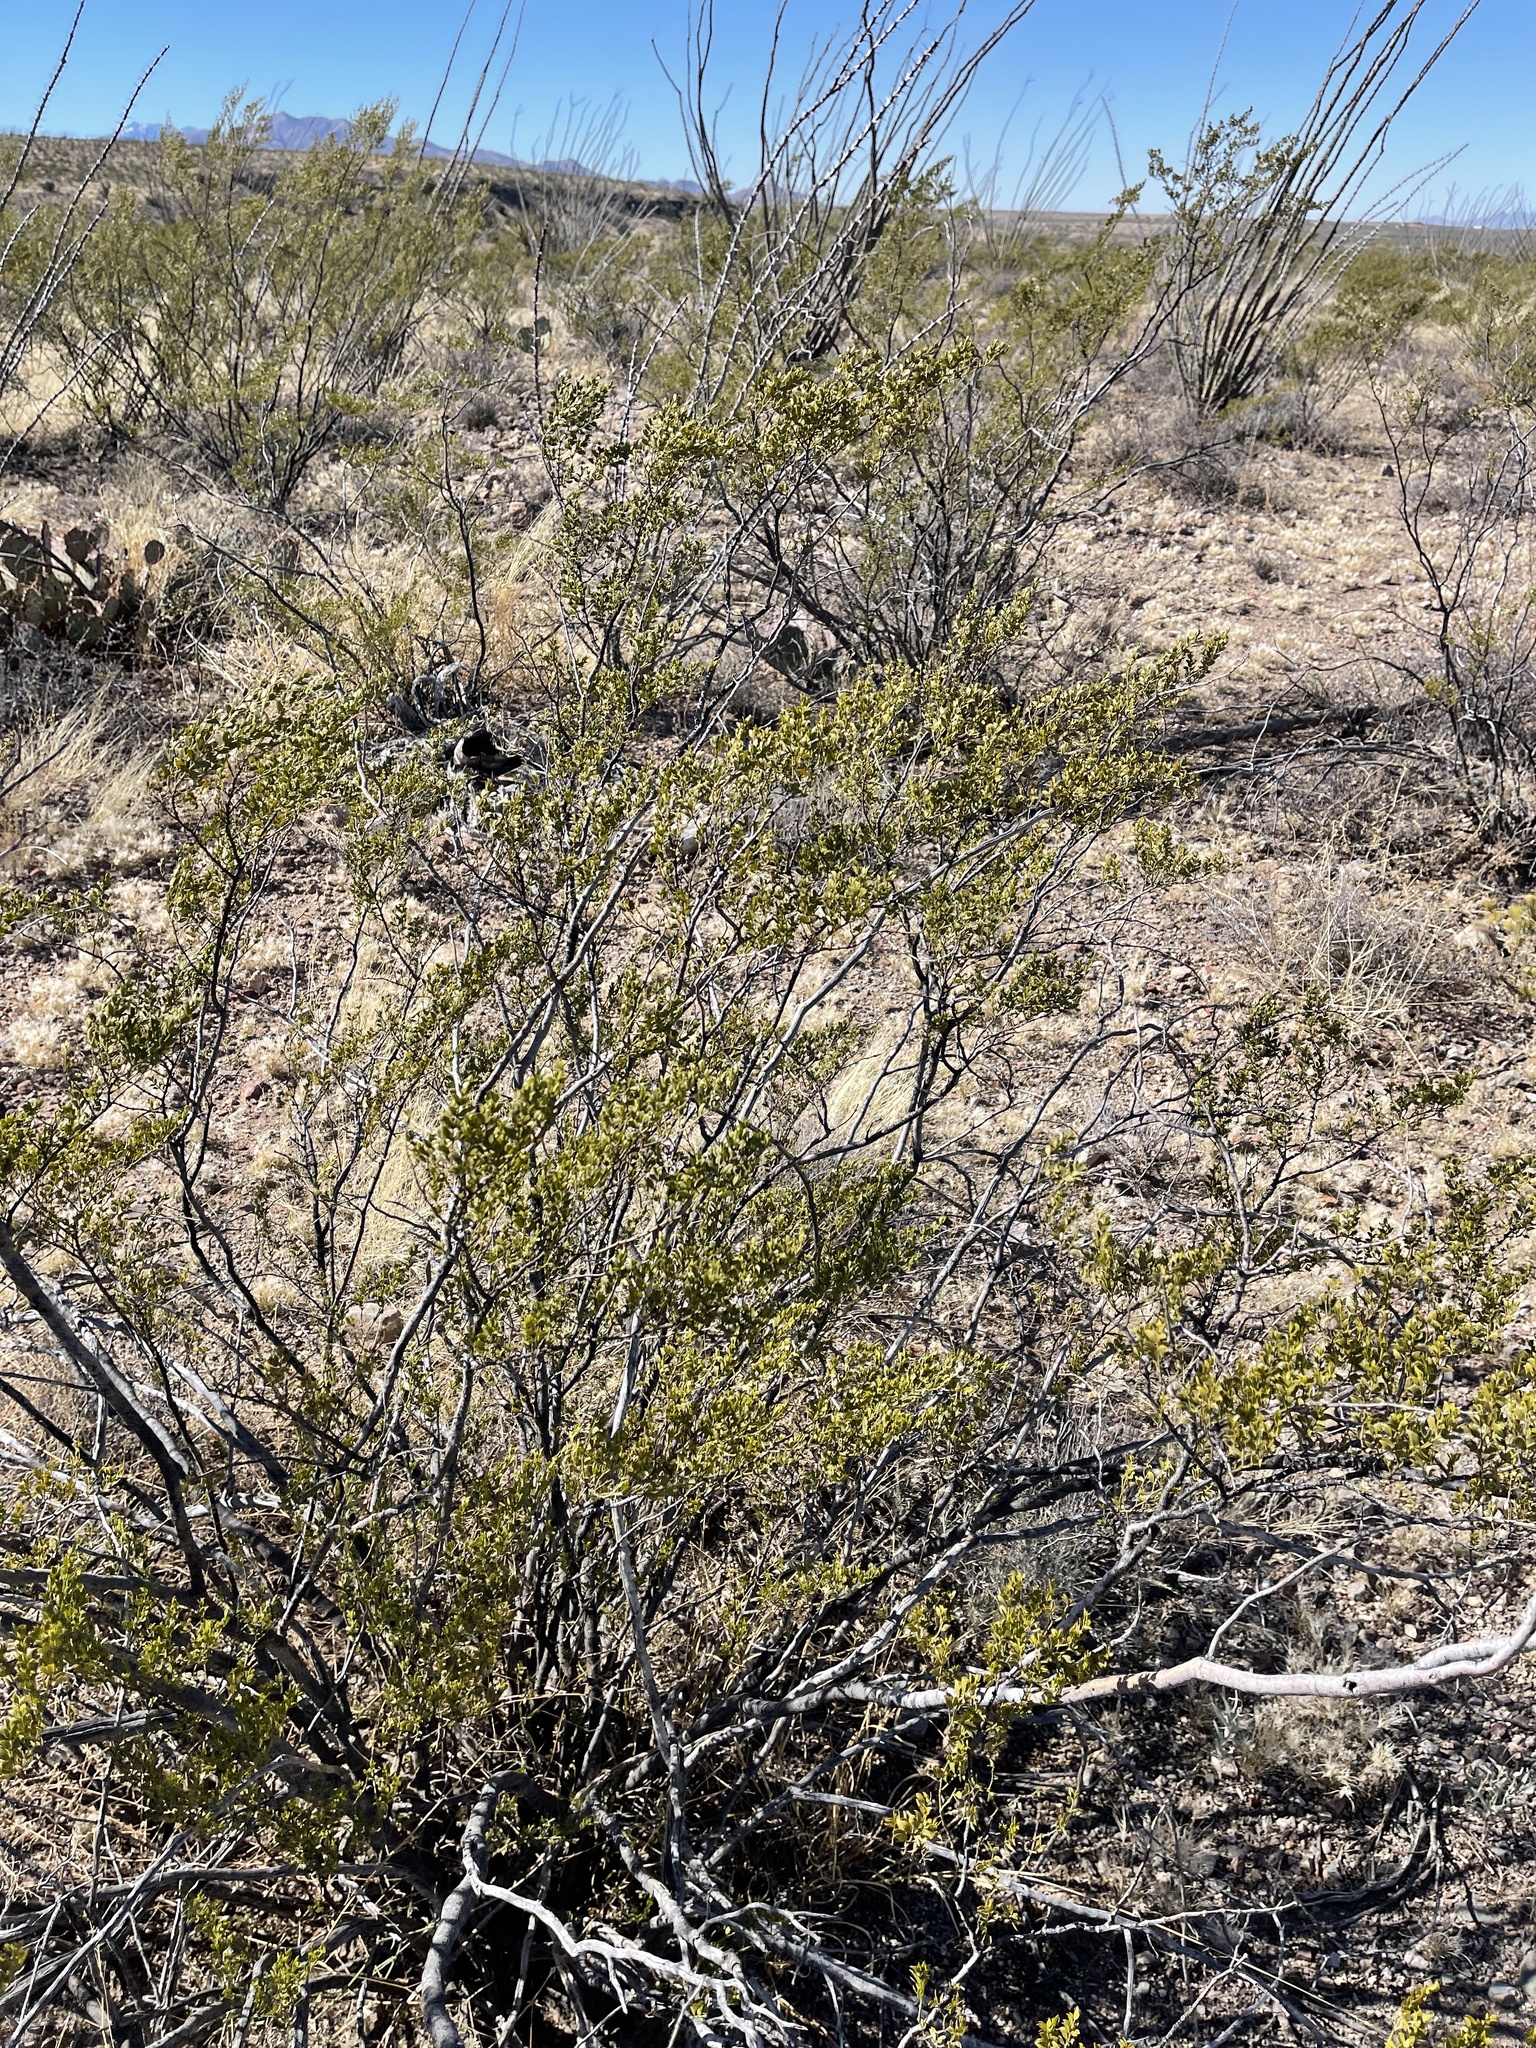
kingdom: Plantae
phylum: Tracheophyta
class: Magnoliopsida
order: Zygophyllales
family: Zygophyllaceae
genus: Larrea
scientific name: Larrea tridentata
